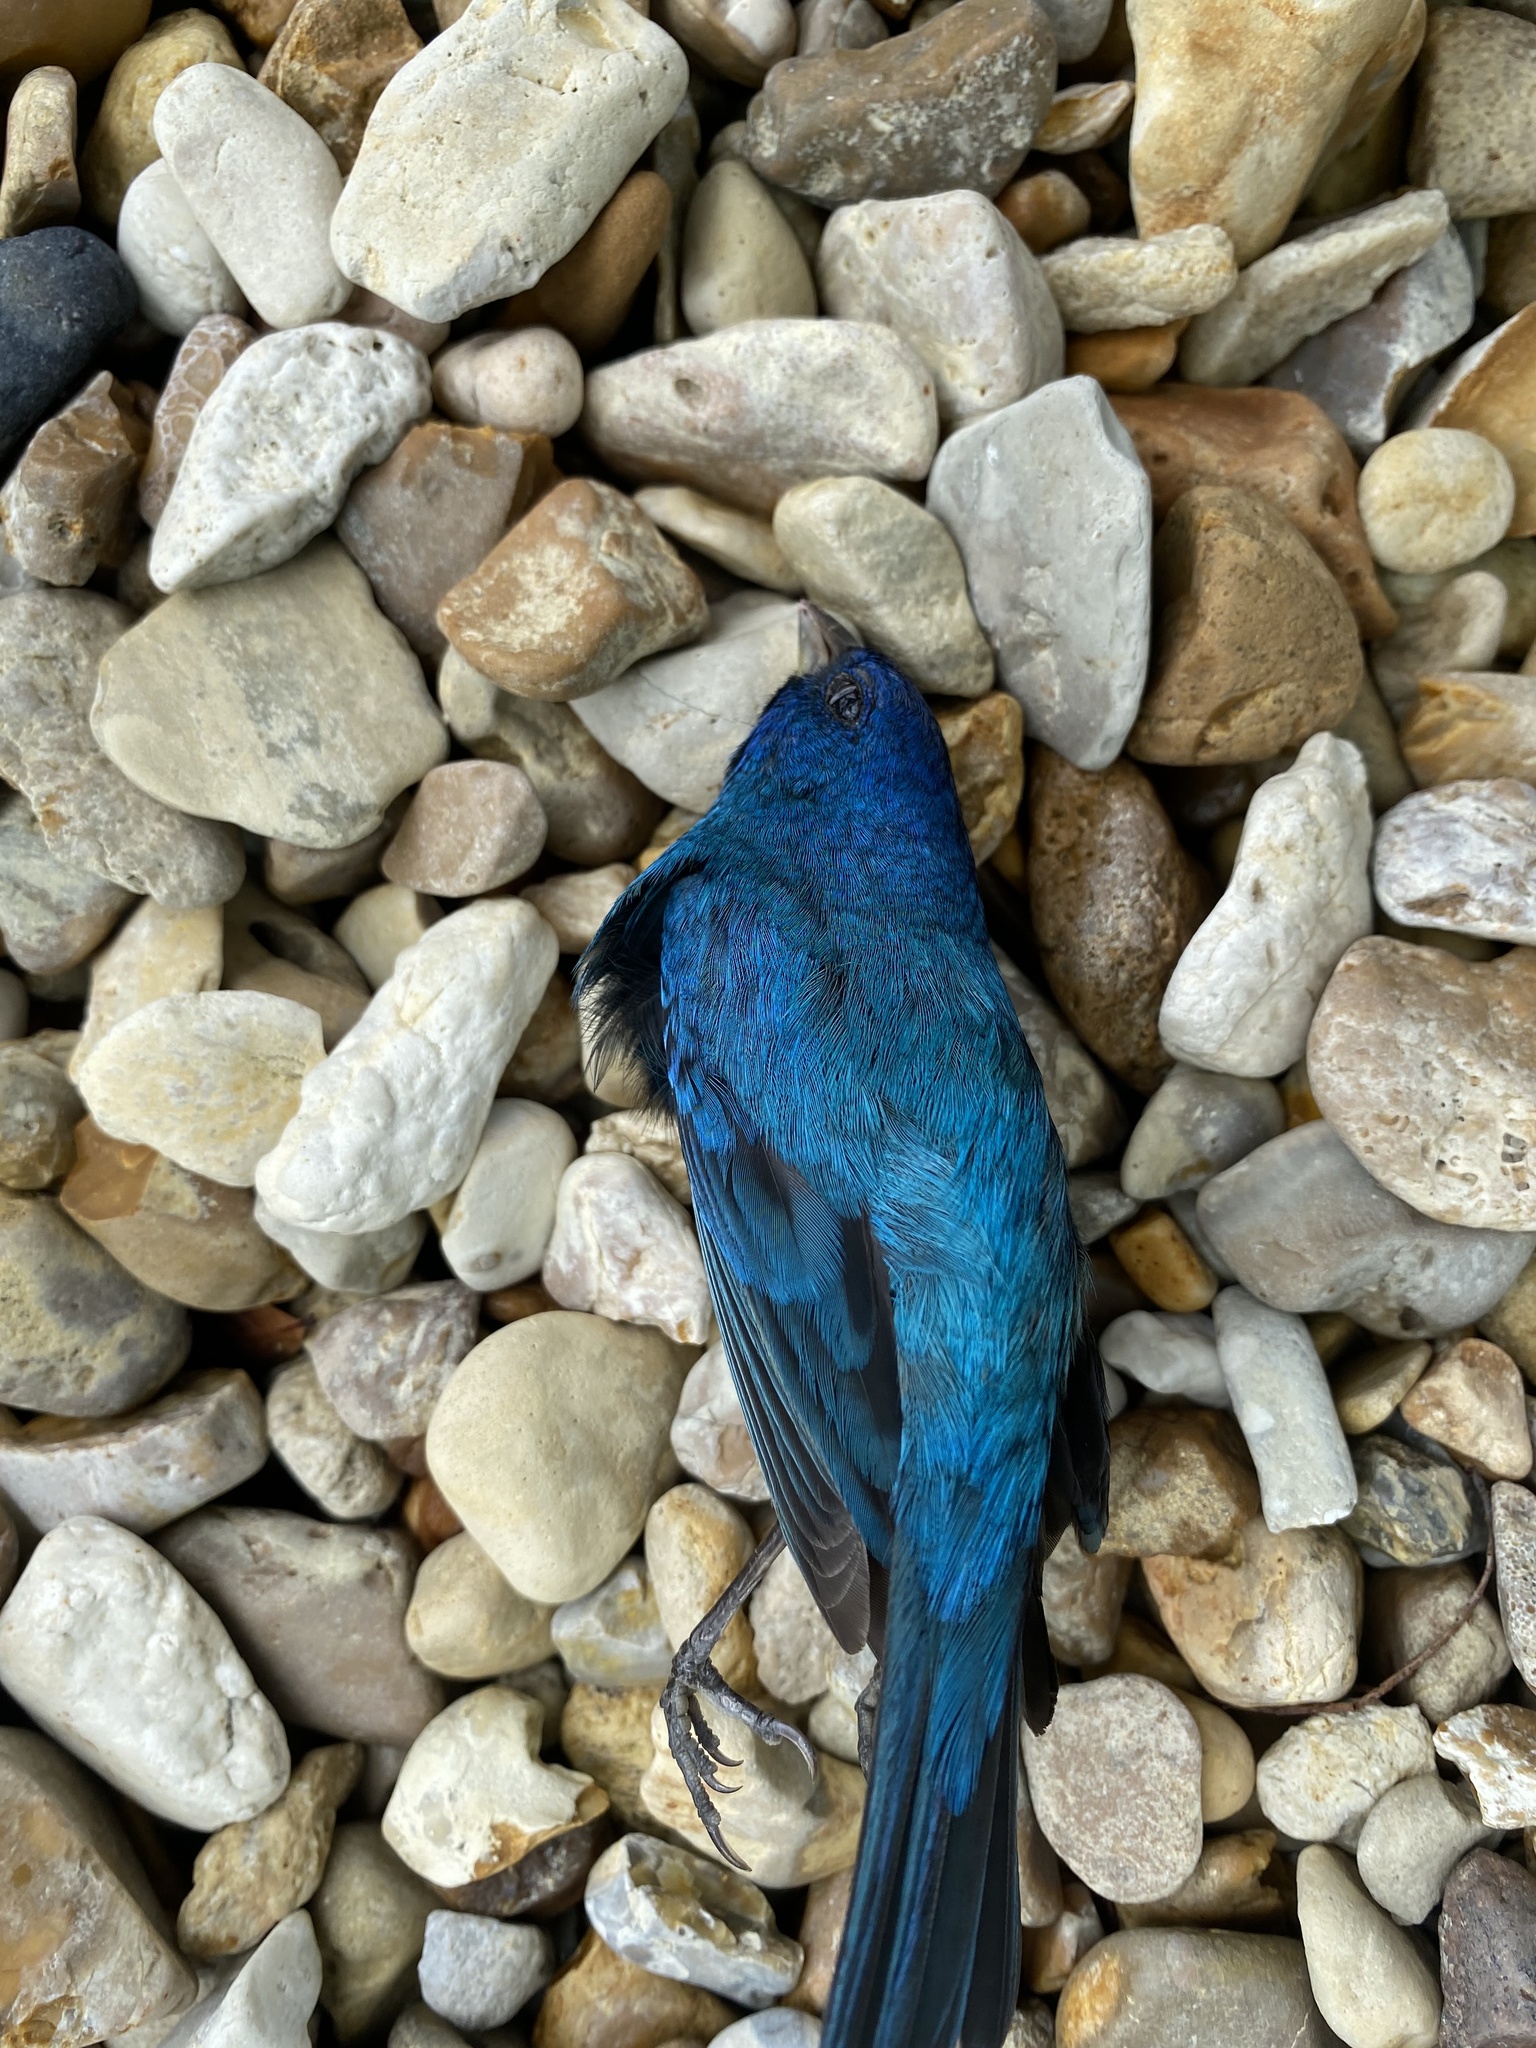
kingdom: Animalia
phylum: Chordata
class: Aves
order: Passeriformes
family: Cardinalidae
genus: Passerina
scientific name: Passerina cyanea
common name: Indigo bunting
